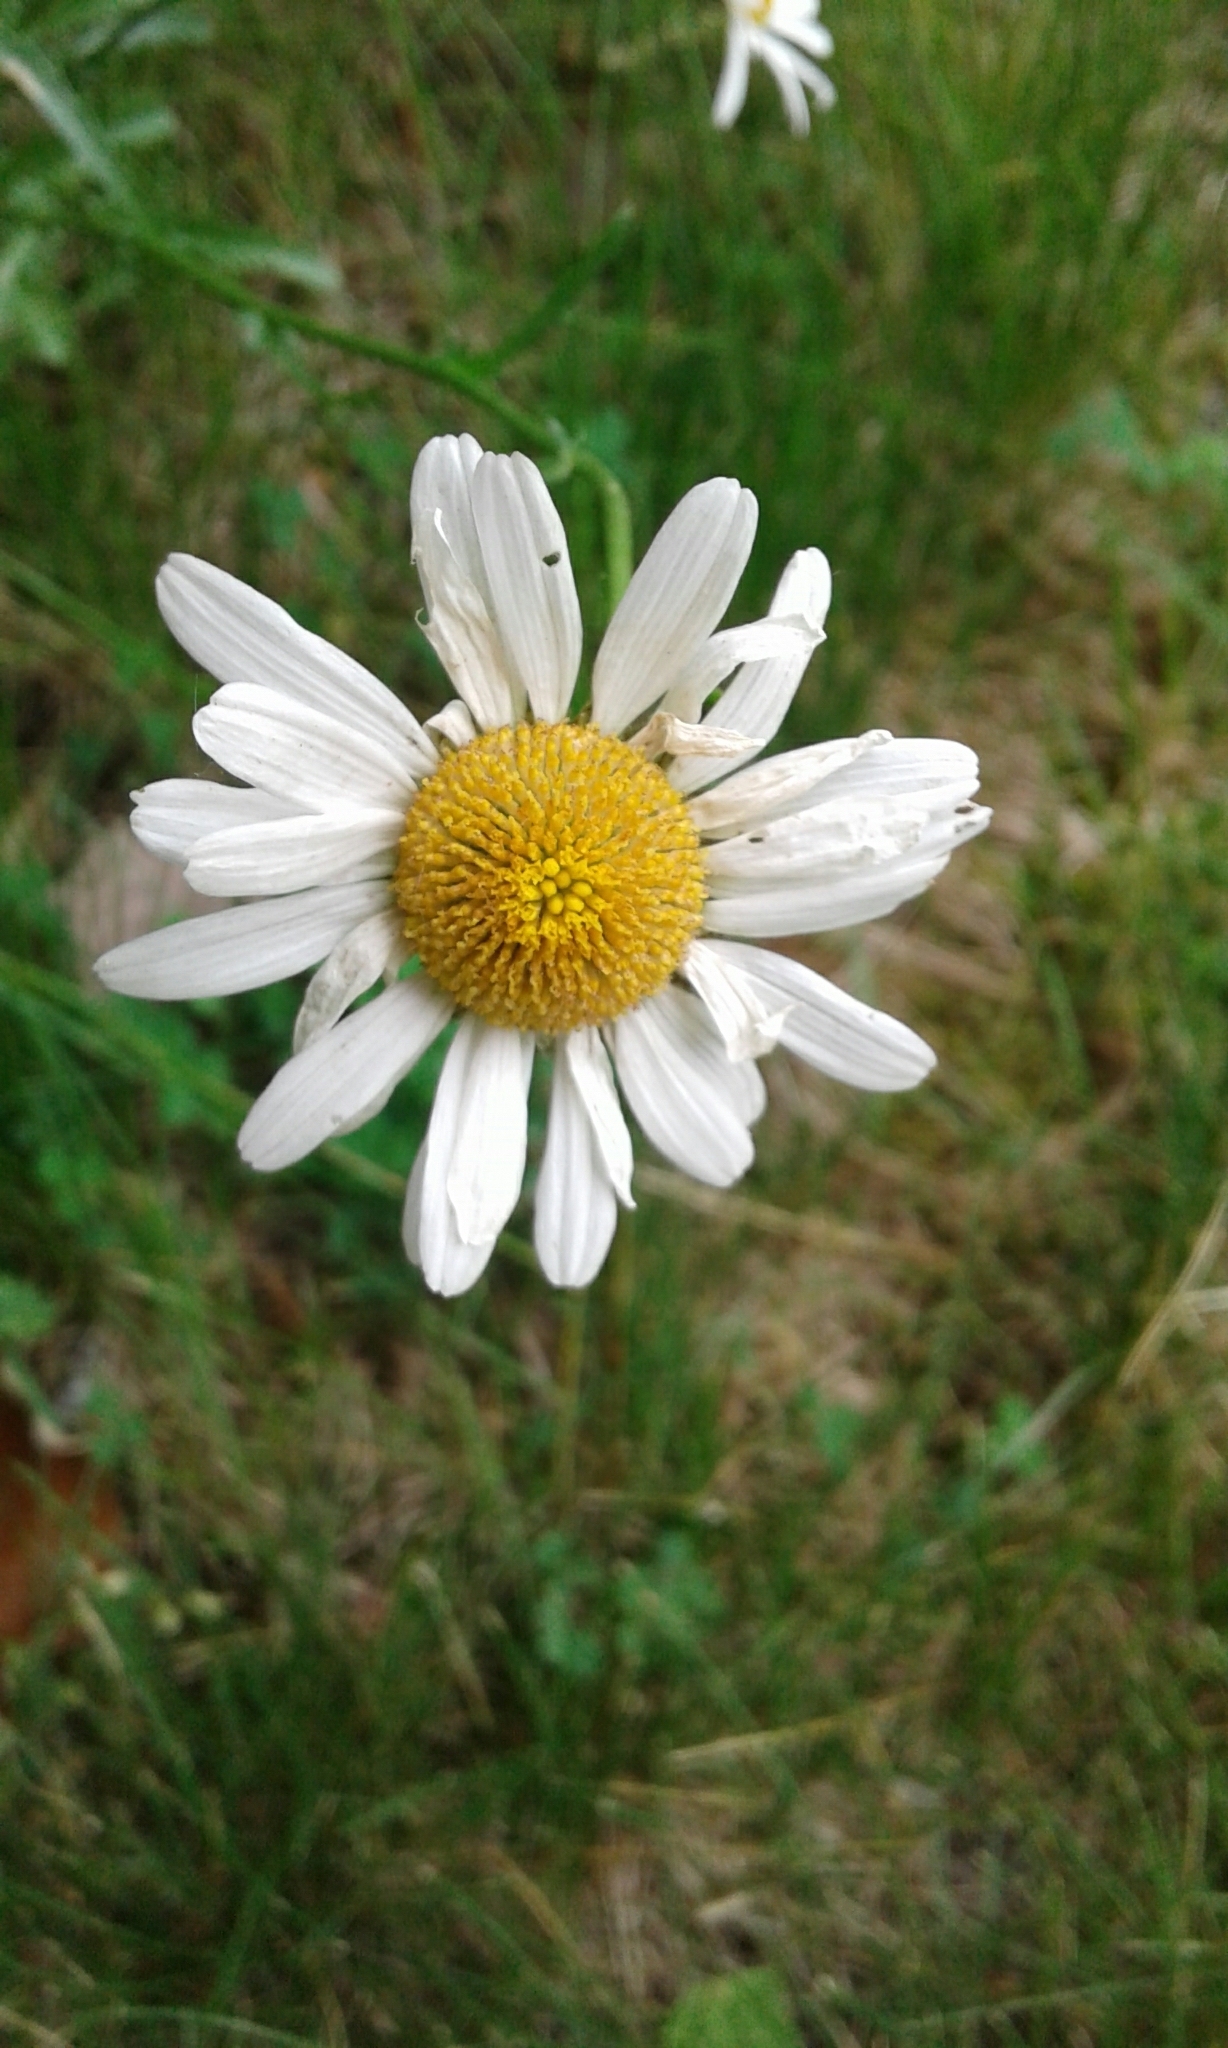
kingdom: Plantae
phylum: Tracheophyta
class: Magnoliopsida
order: Asterales
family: Asteraceae
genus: Leucanthemum
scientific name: Leucanthemum vulgare
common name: Oxeye daisy
